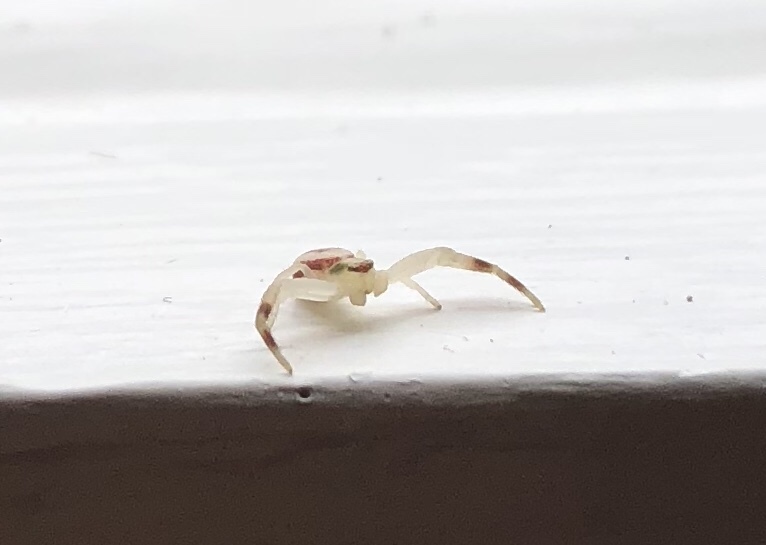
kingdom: Animalia
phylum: Arthropoda
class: Arachnida
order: Araneae
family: Thomisidae
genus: Misumena
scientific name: Misumena vatia
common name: Goldenrod crab spider
